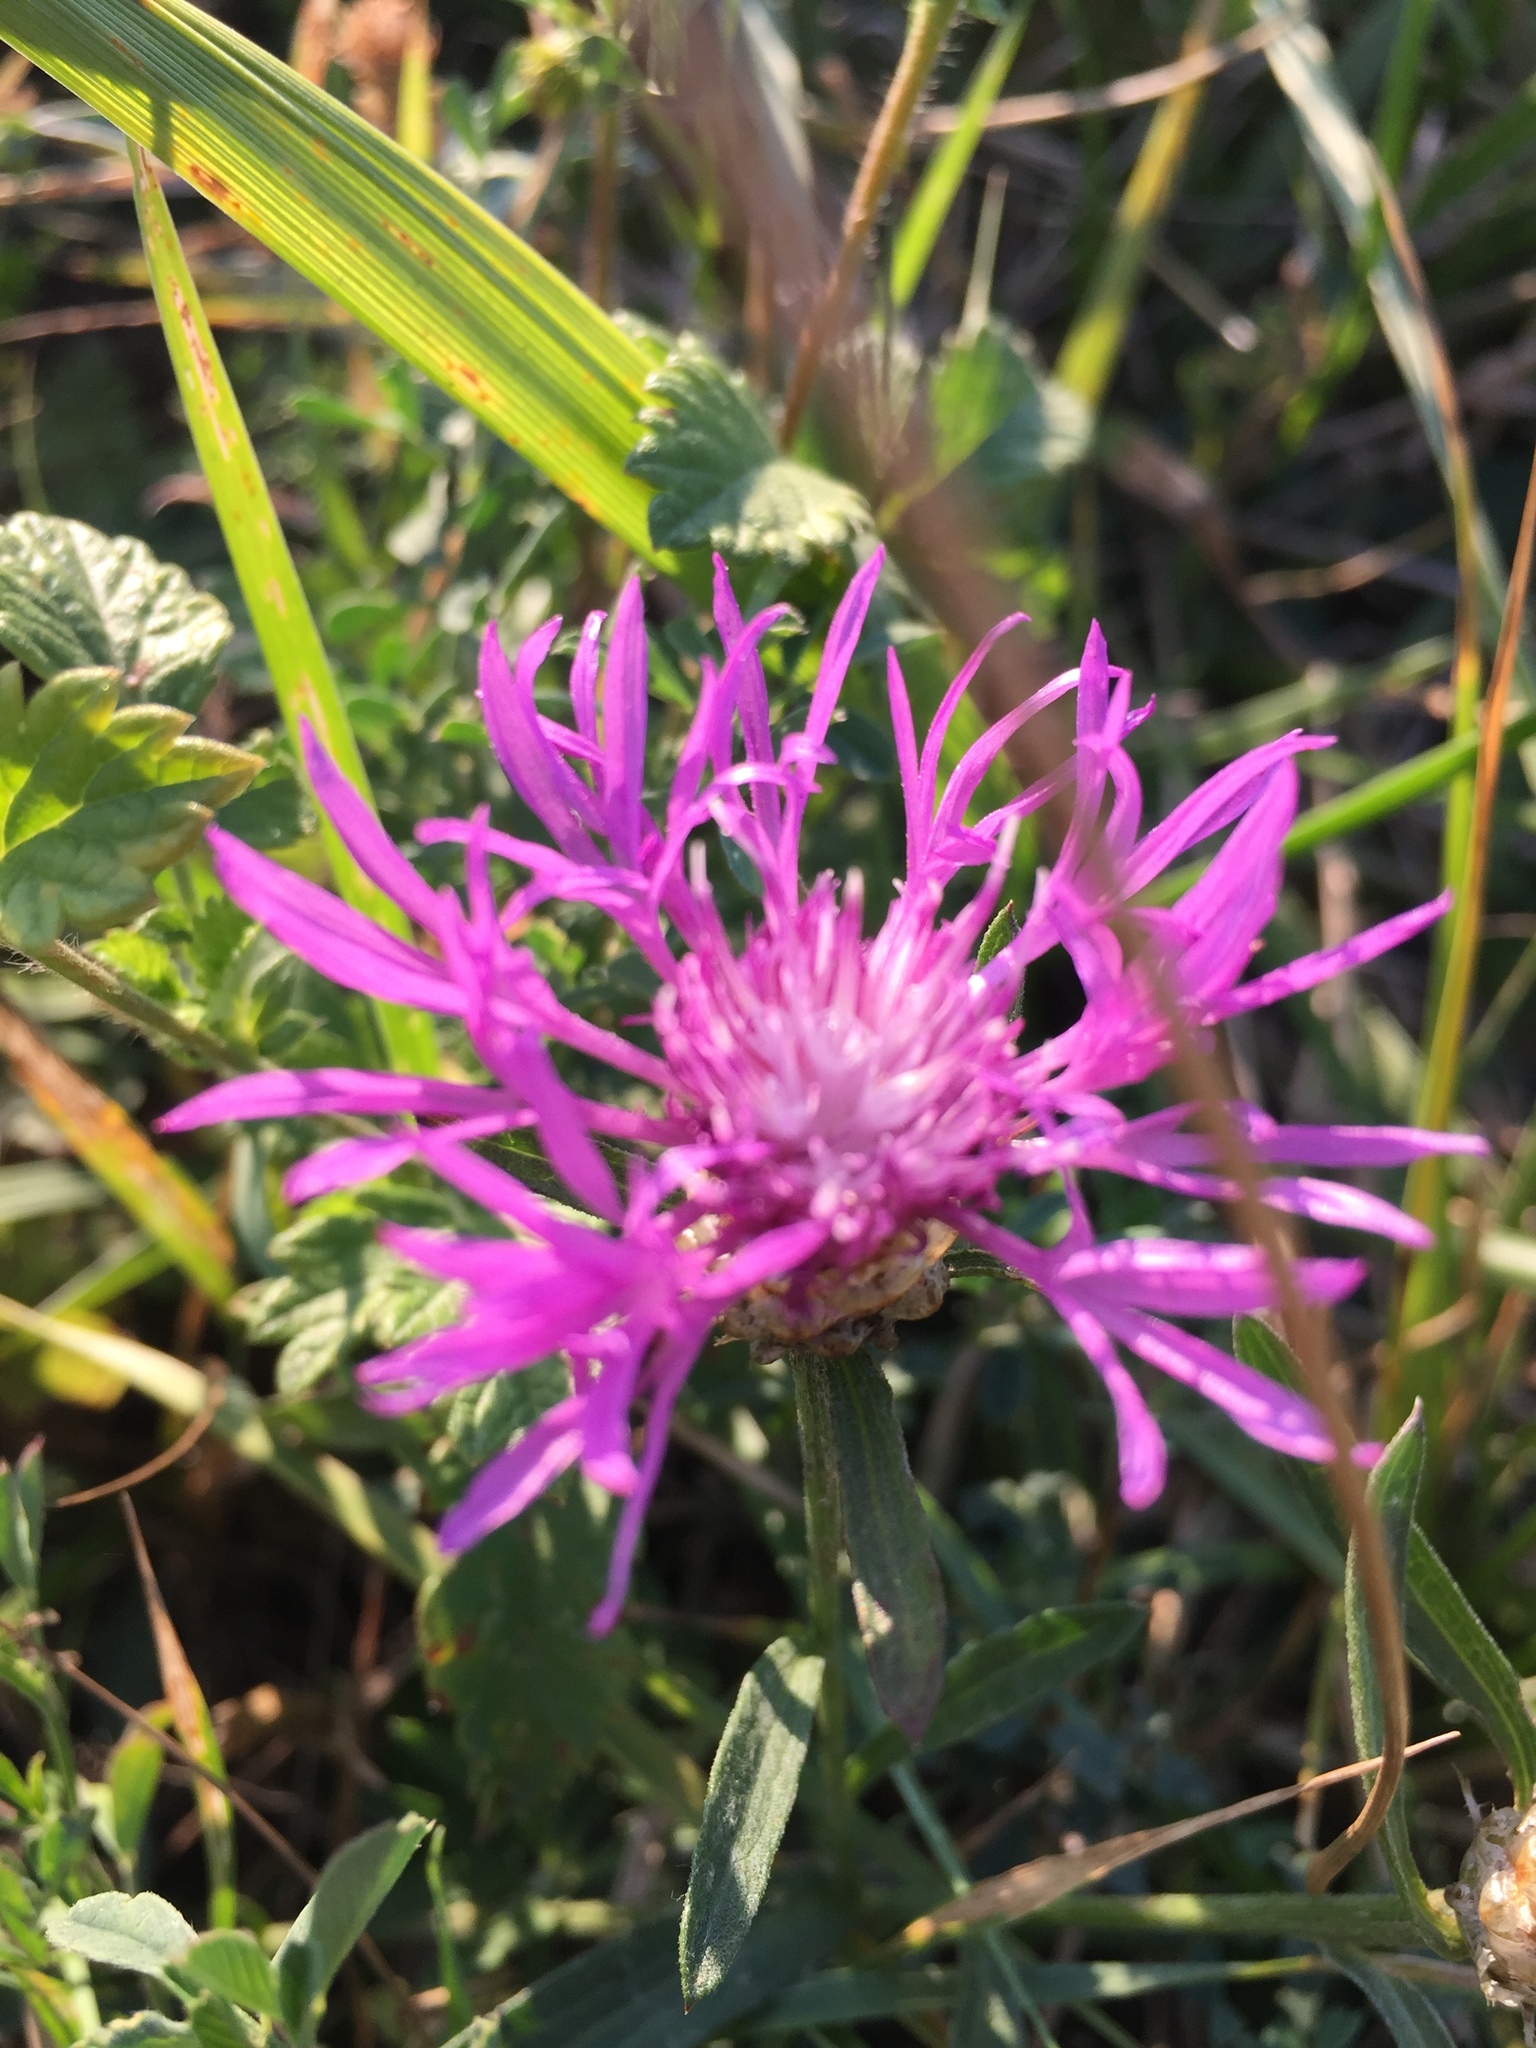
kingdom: Plantae
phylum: Tracheophyta
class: Magnoliopsida
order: Asterales
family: Asteraceae
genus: Centaurea
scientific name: Centaurea jacea
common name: Brown knapweed
